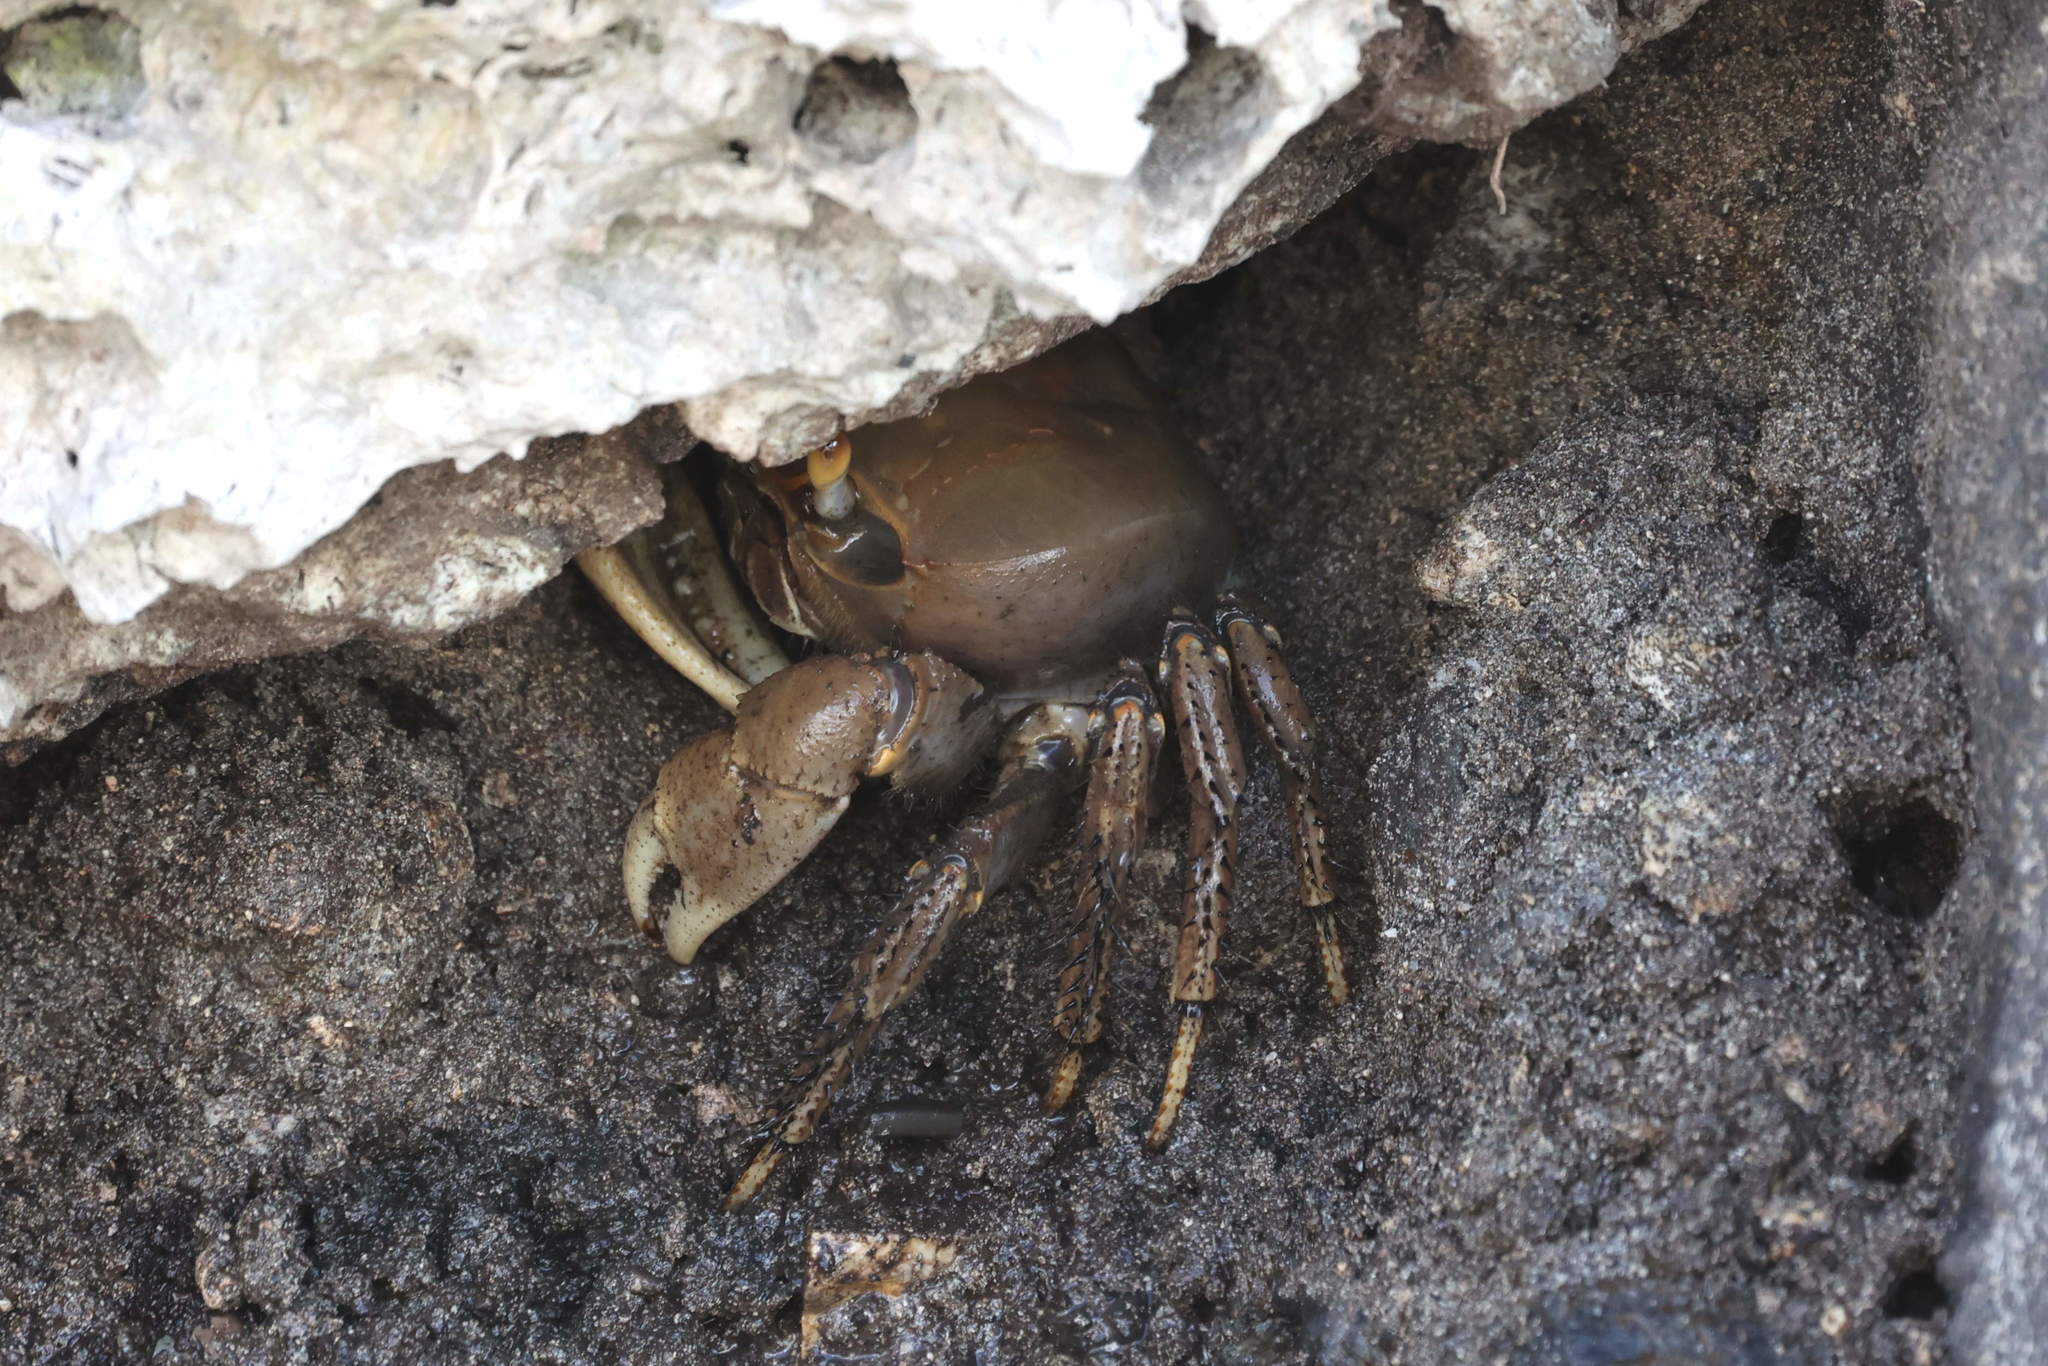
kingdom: Animalia
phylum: Arthropoda
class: Malacostraca
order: Decapoda
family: Gecarcinidae
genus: Cardisoma
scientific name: Cardisoma guanhumi
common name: Great land crab
